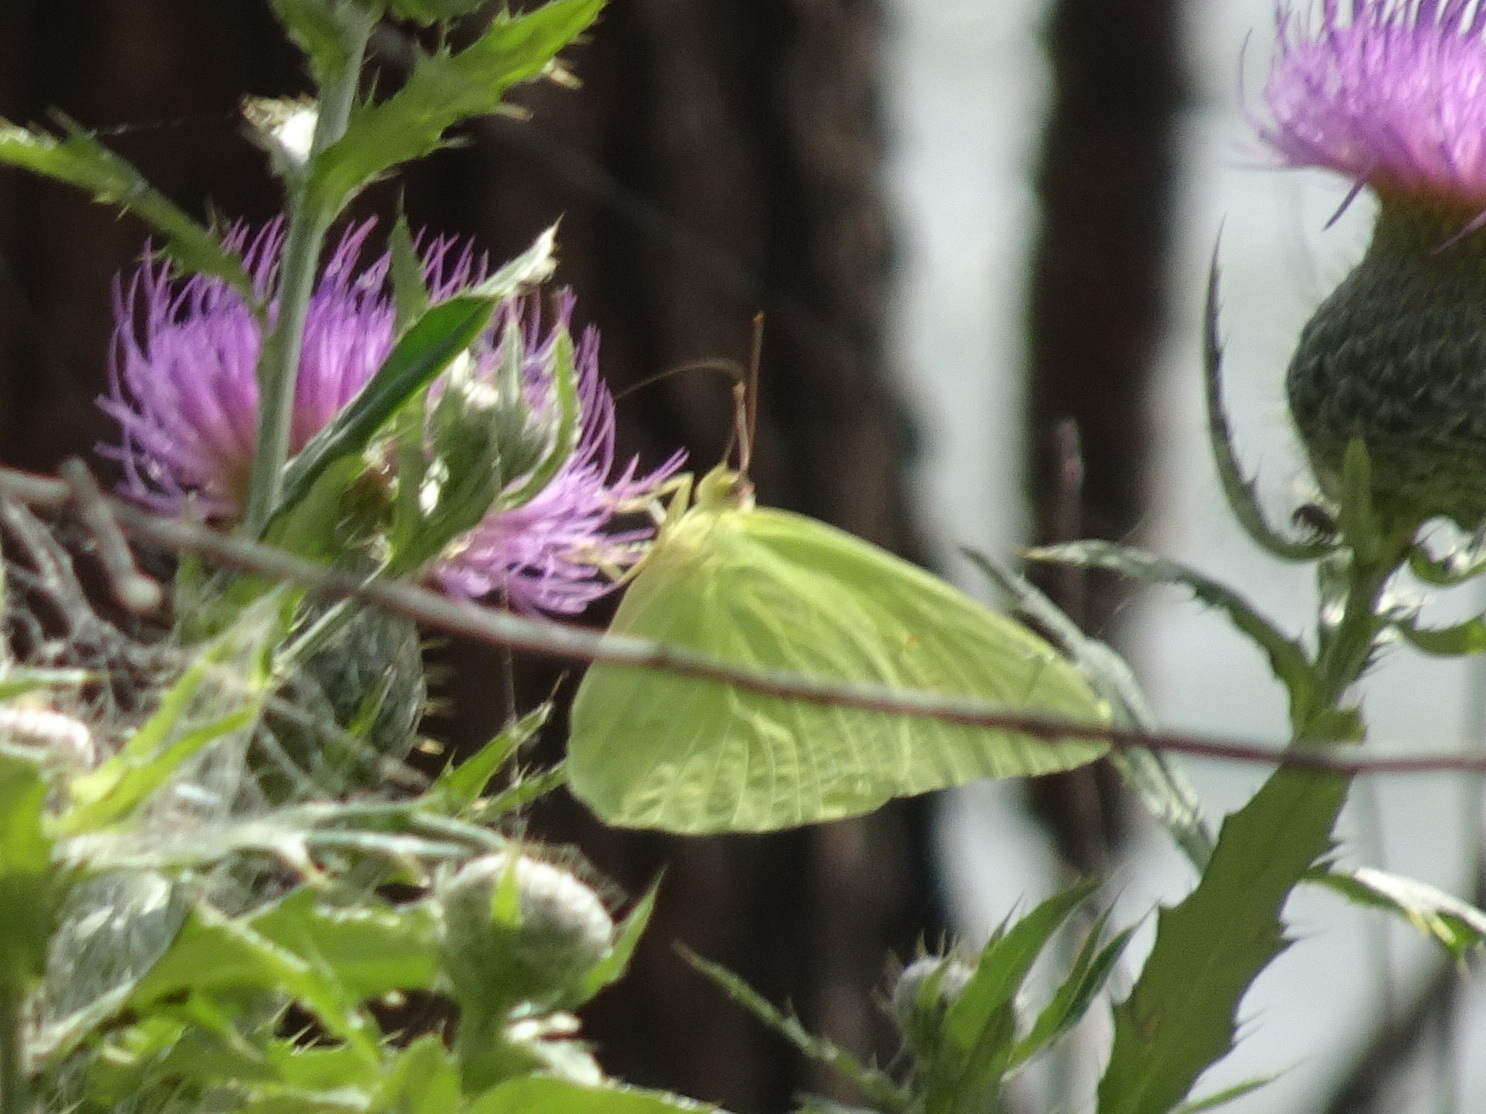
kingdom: Animalia
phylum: Arthropoda
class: Insecta
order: Lepidoptera
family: Pieridae
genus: Phoebis
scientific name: Phoebis sennae
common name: Cloudless sulphur
